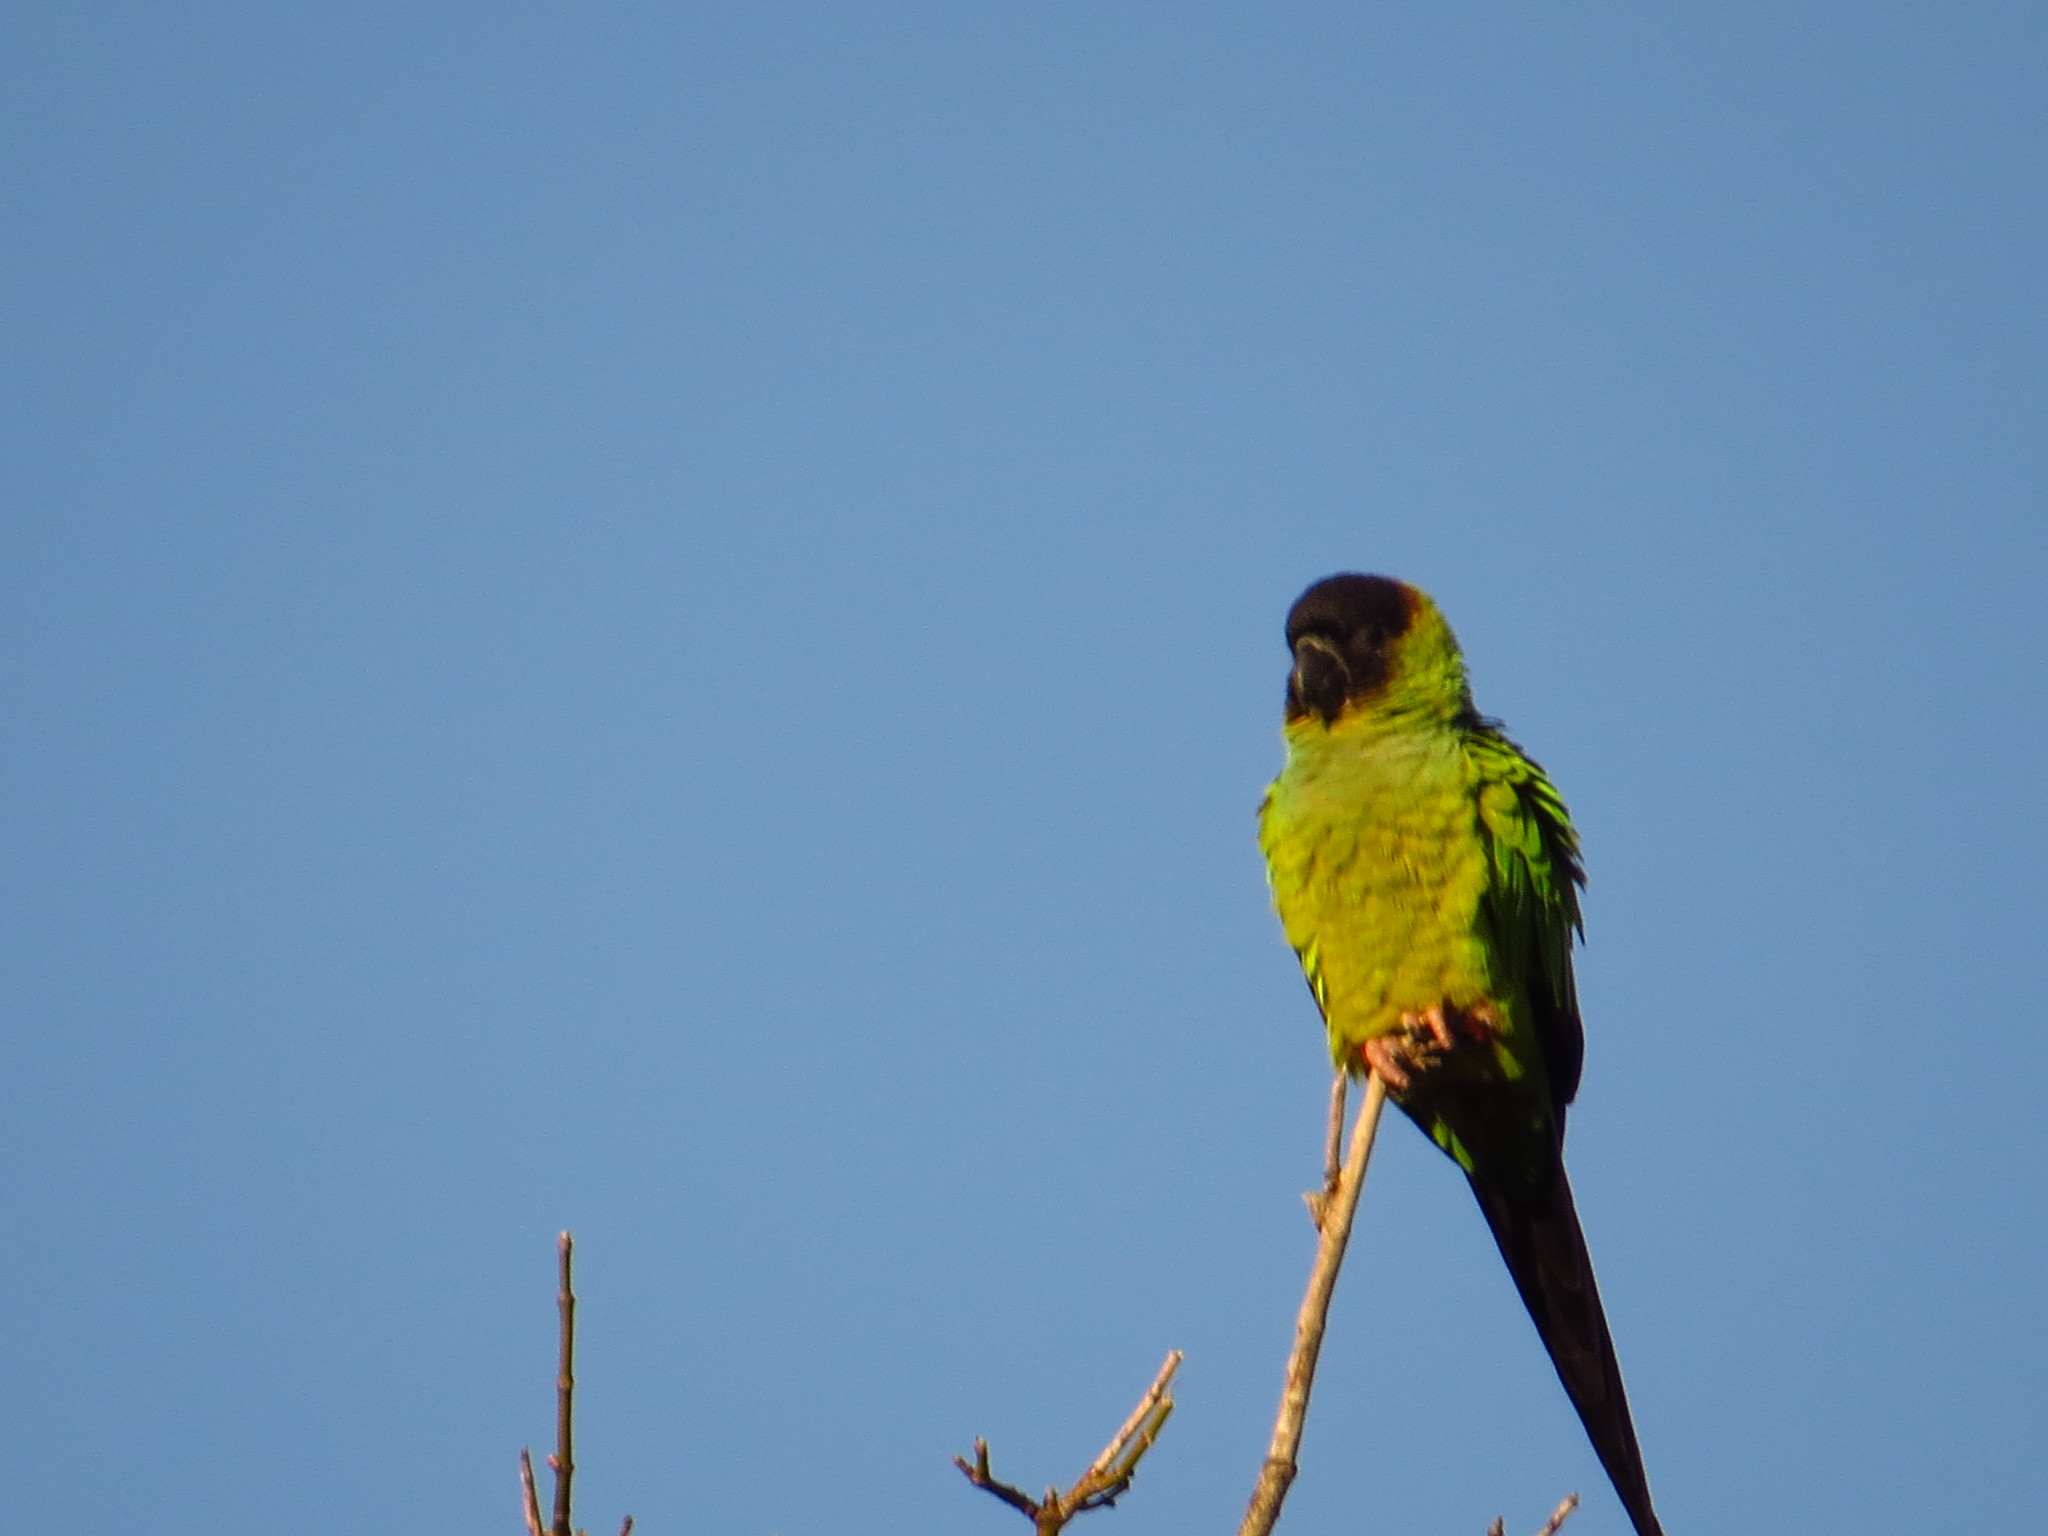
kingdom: Animalia
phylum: Chordata
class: Aves
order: Psittaciformes
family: Psittacidae
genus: Nandayus
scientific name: Nandayus nenday
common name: Nanday parakeet
